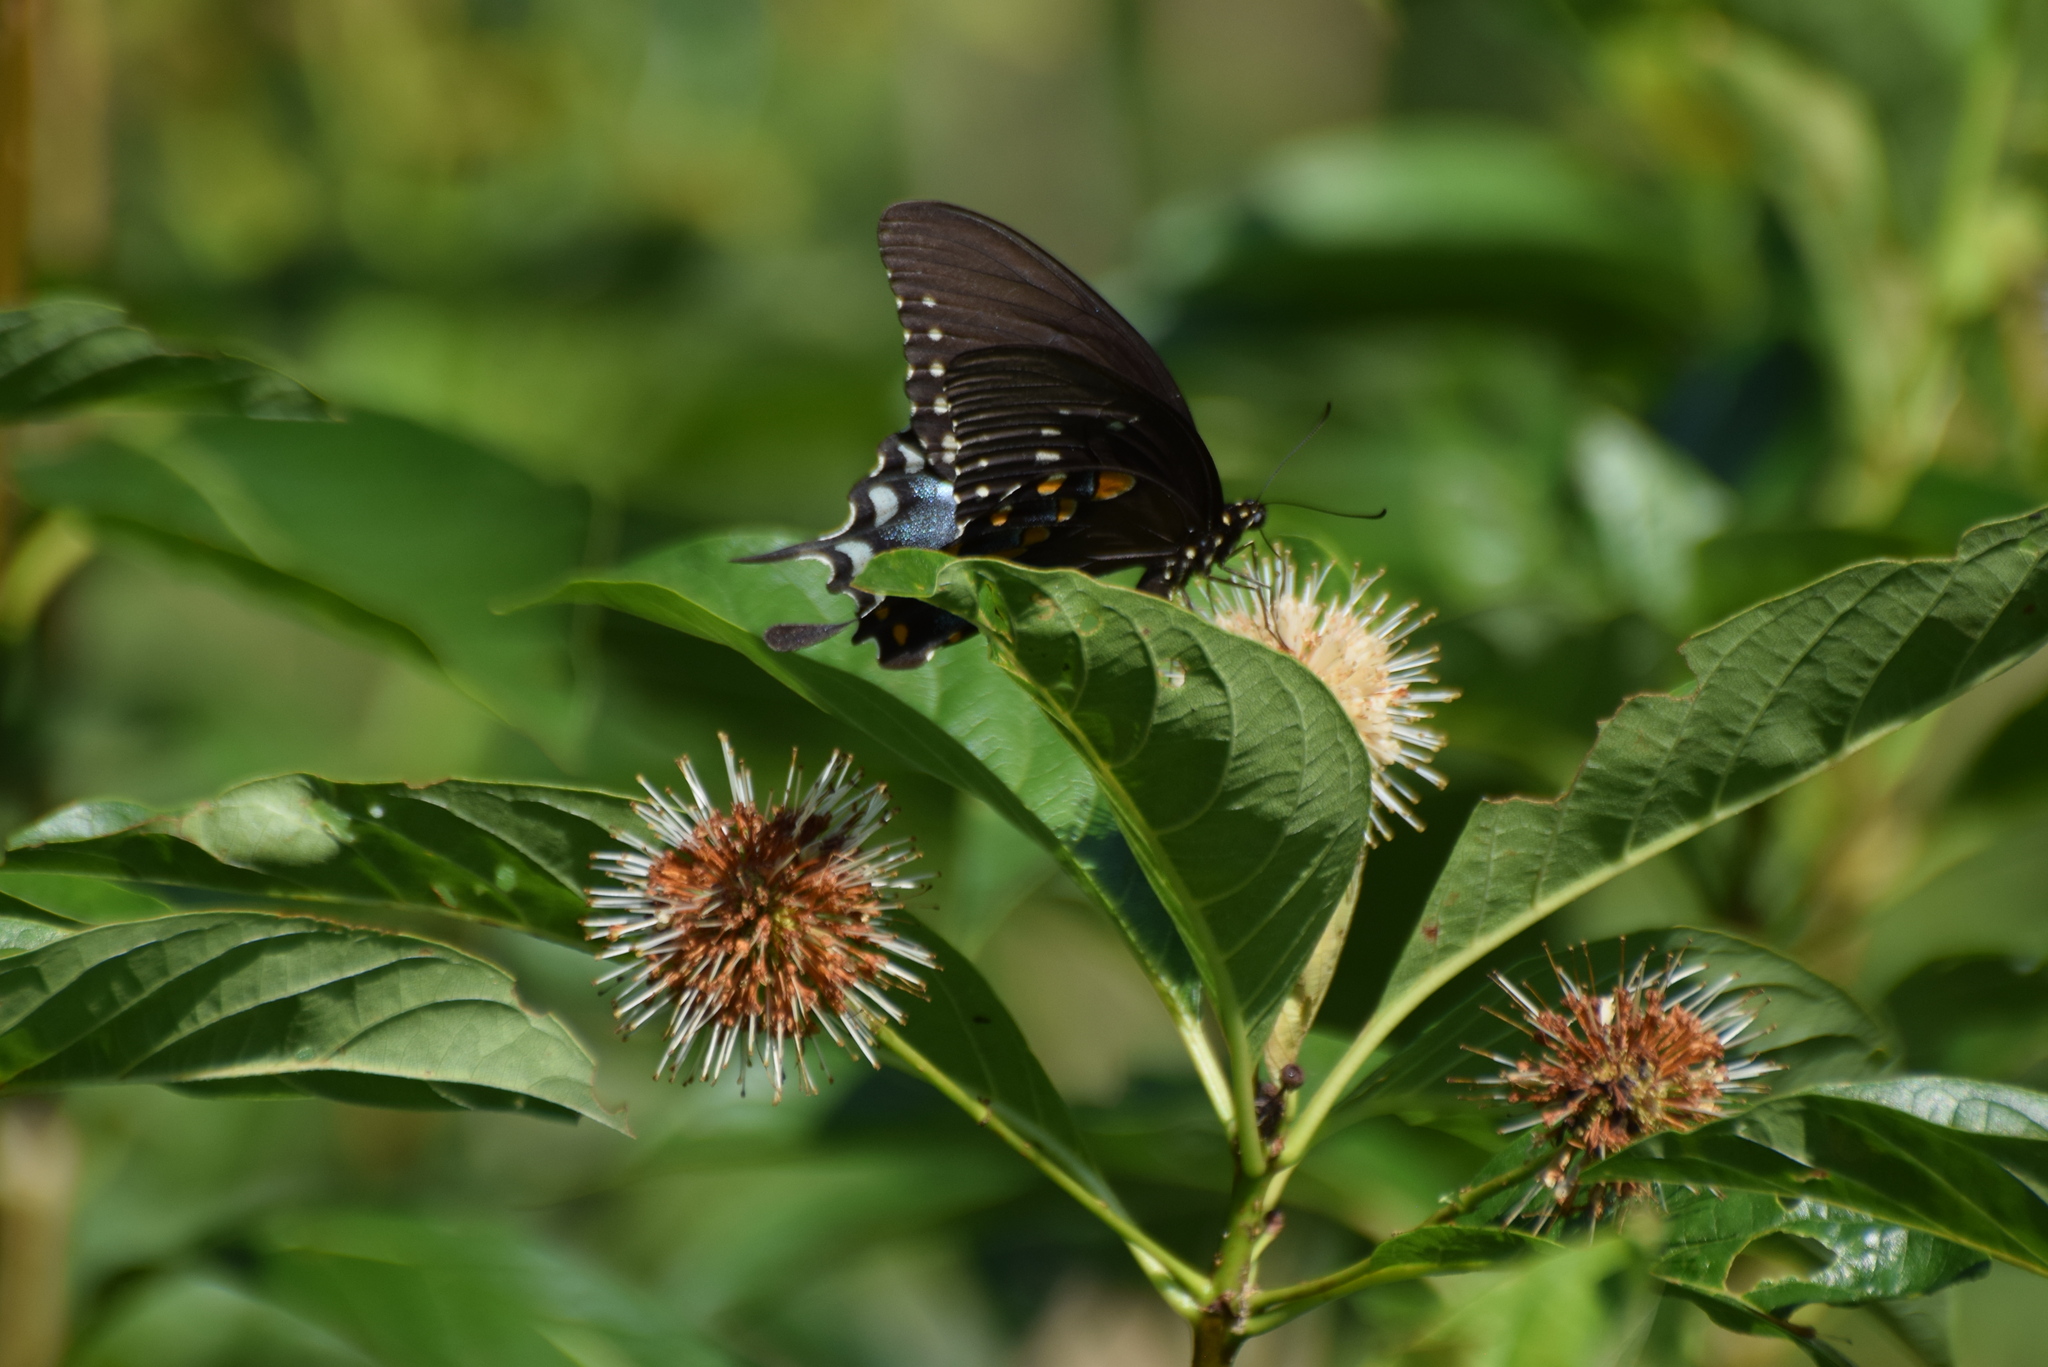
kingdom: Animalia
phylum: Arthropoda
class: Insecta
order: Lepidoptera
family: Papilionidae
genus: Papilio
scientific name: Papilio troilus
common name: Spicebush swallowtail
